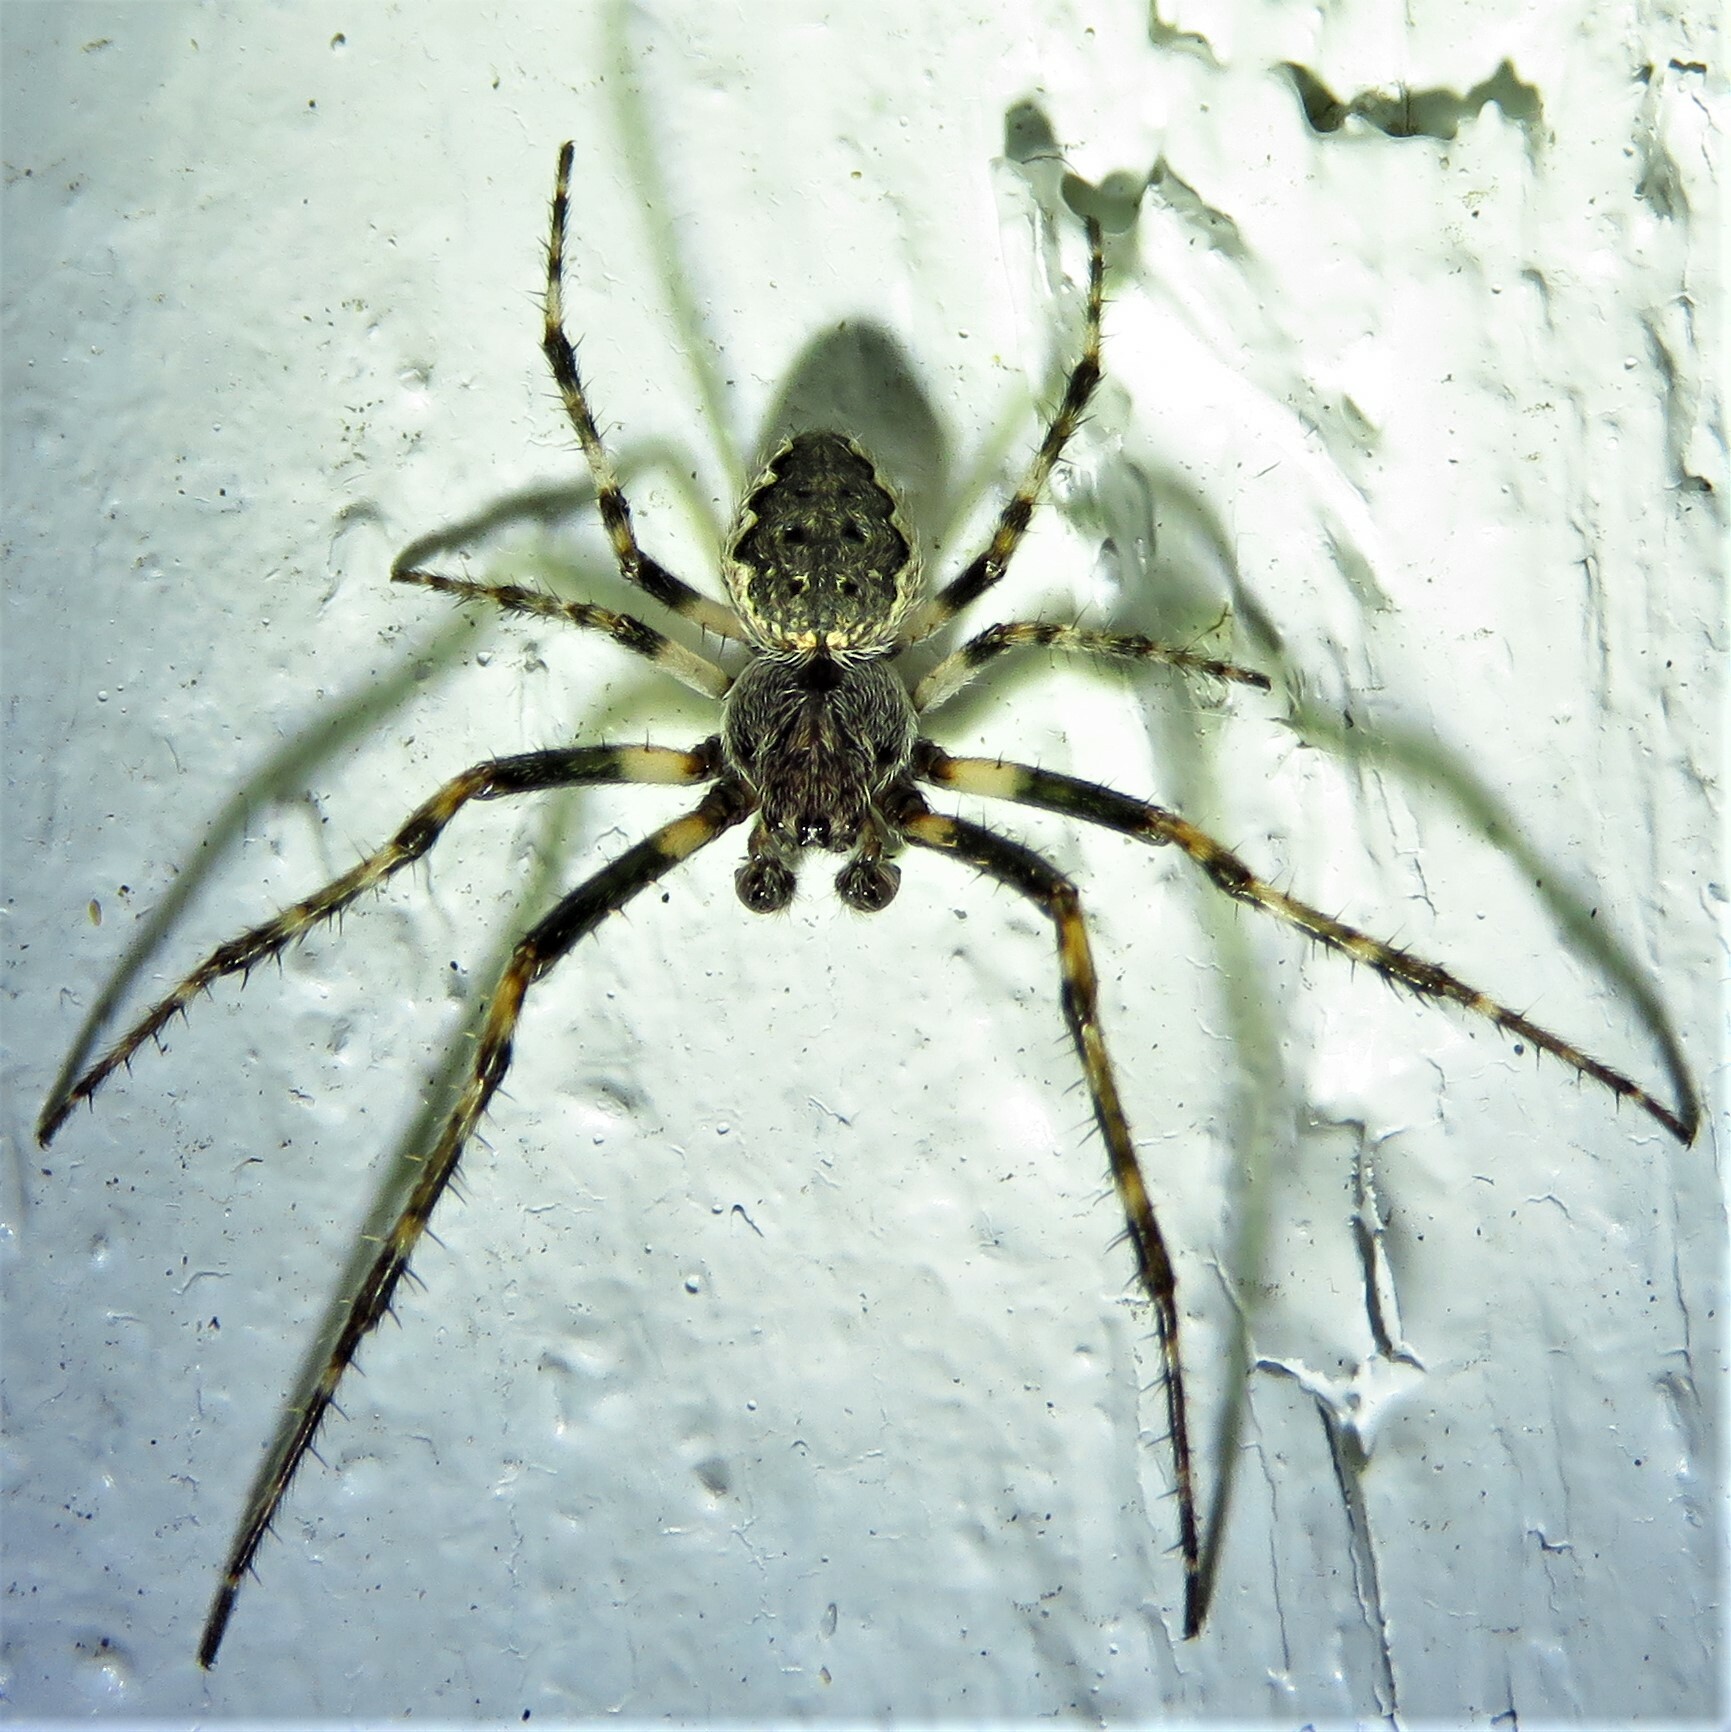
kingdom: Animalia
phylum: Arthropoda
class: Arachnida
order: Araneae
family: Araneidae
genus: Nuctenea
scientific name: Nuctenea umbratica
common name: Toad spider
